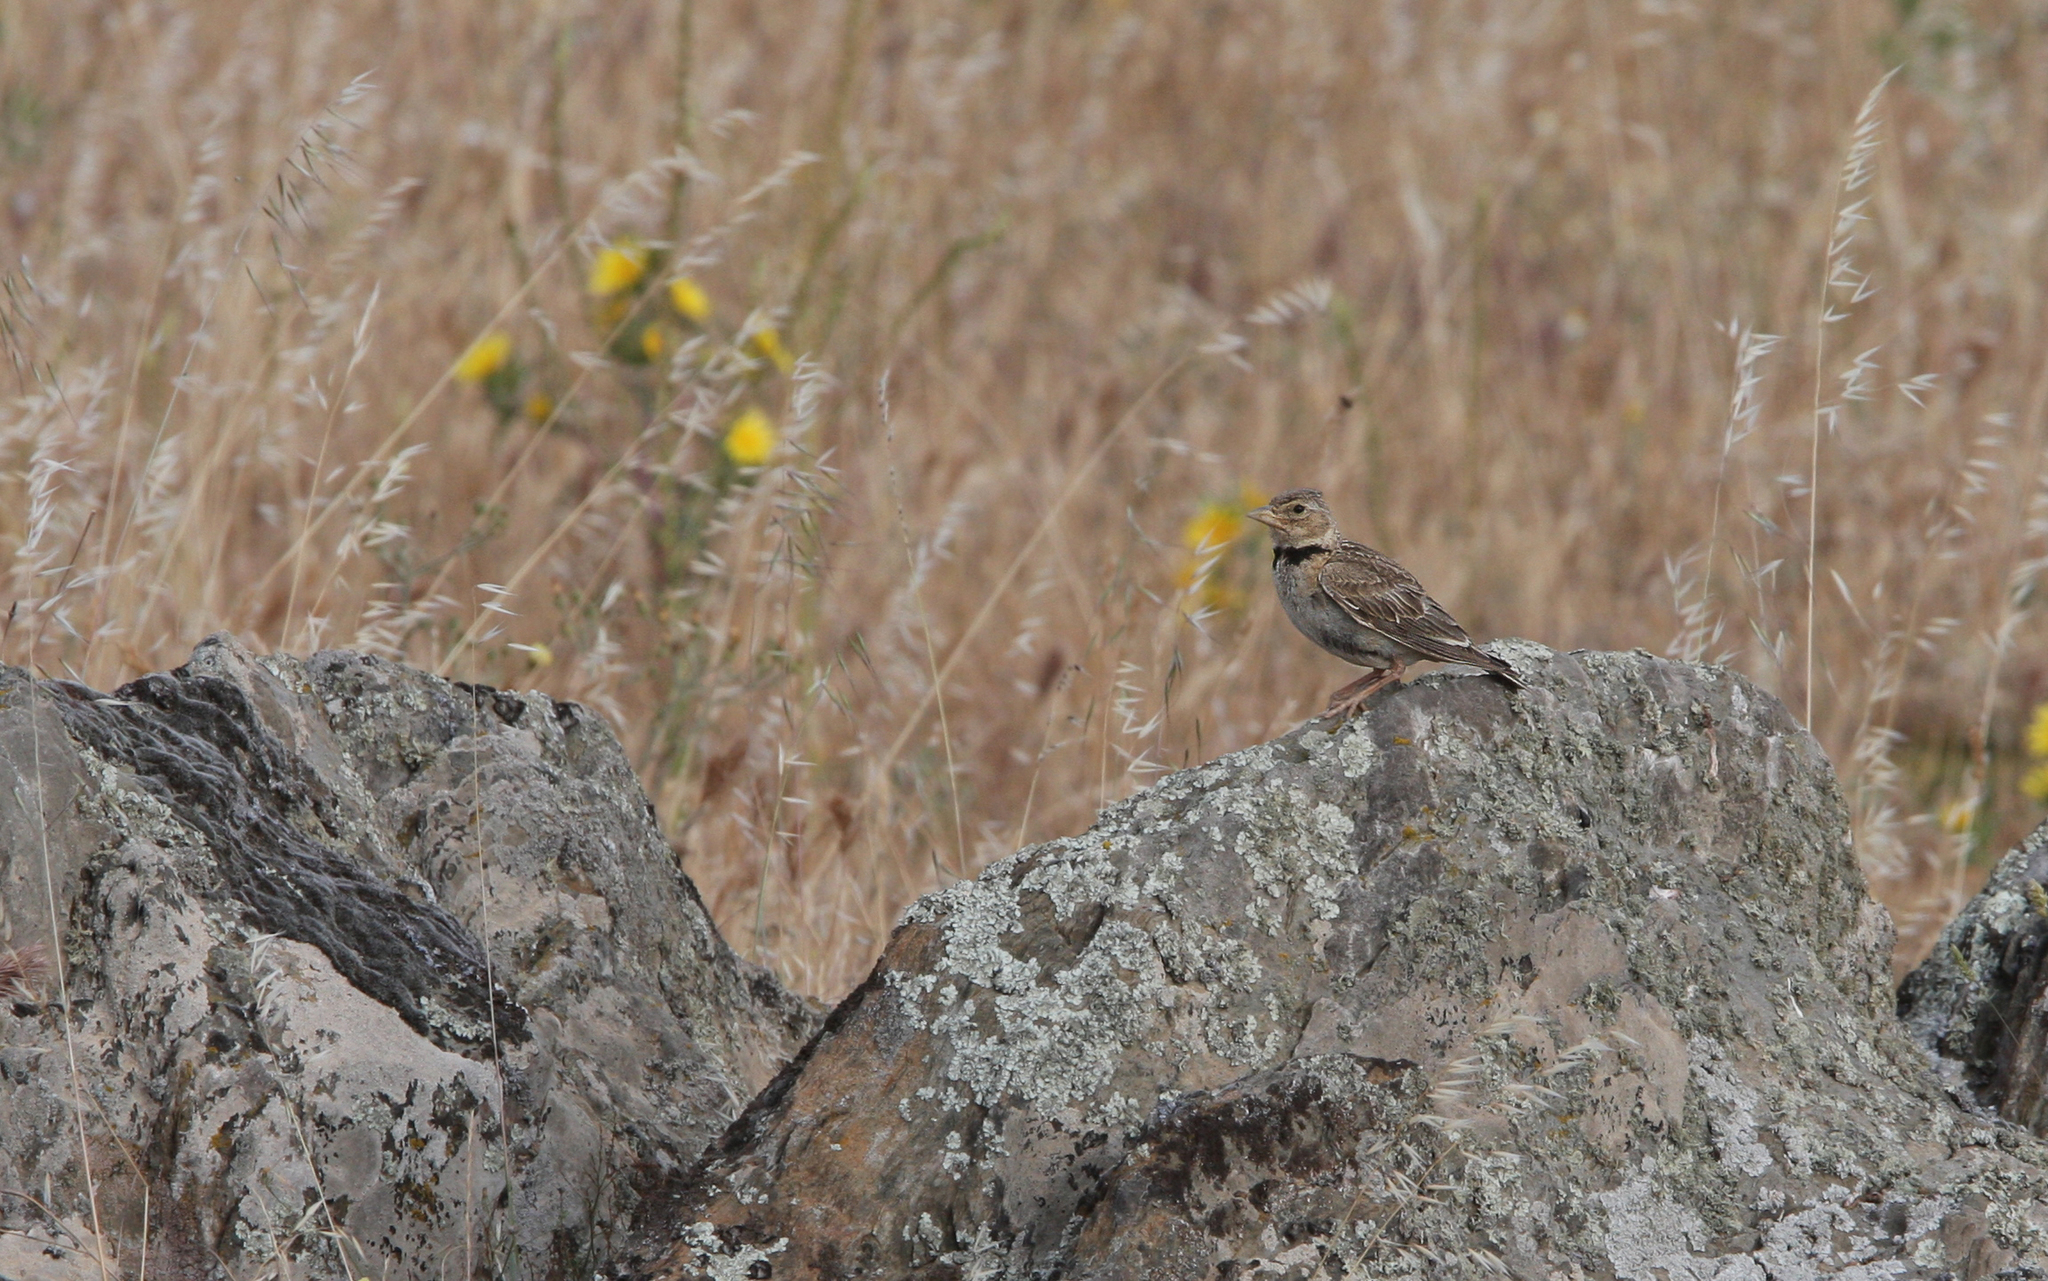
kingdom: Animalia
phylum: Chordata
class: Aves
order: Passeriformes
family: Alaudidae
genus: Melanocorypha
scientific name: Melanocorypha calandra
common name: Calandra lark
